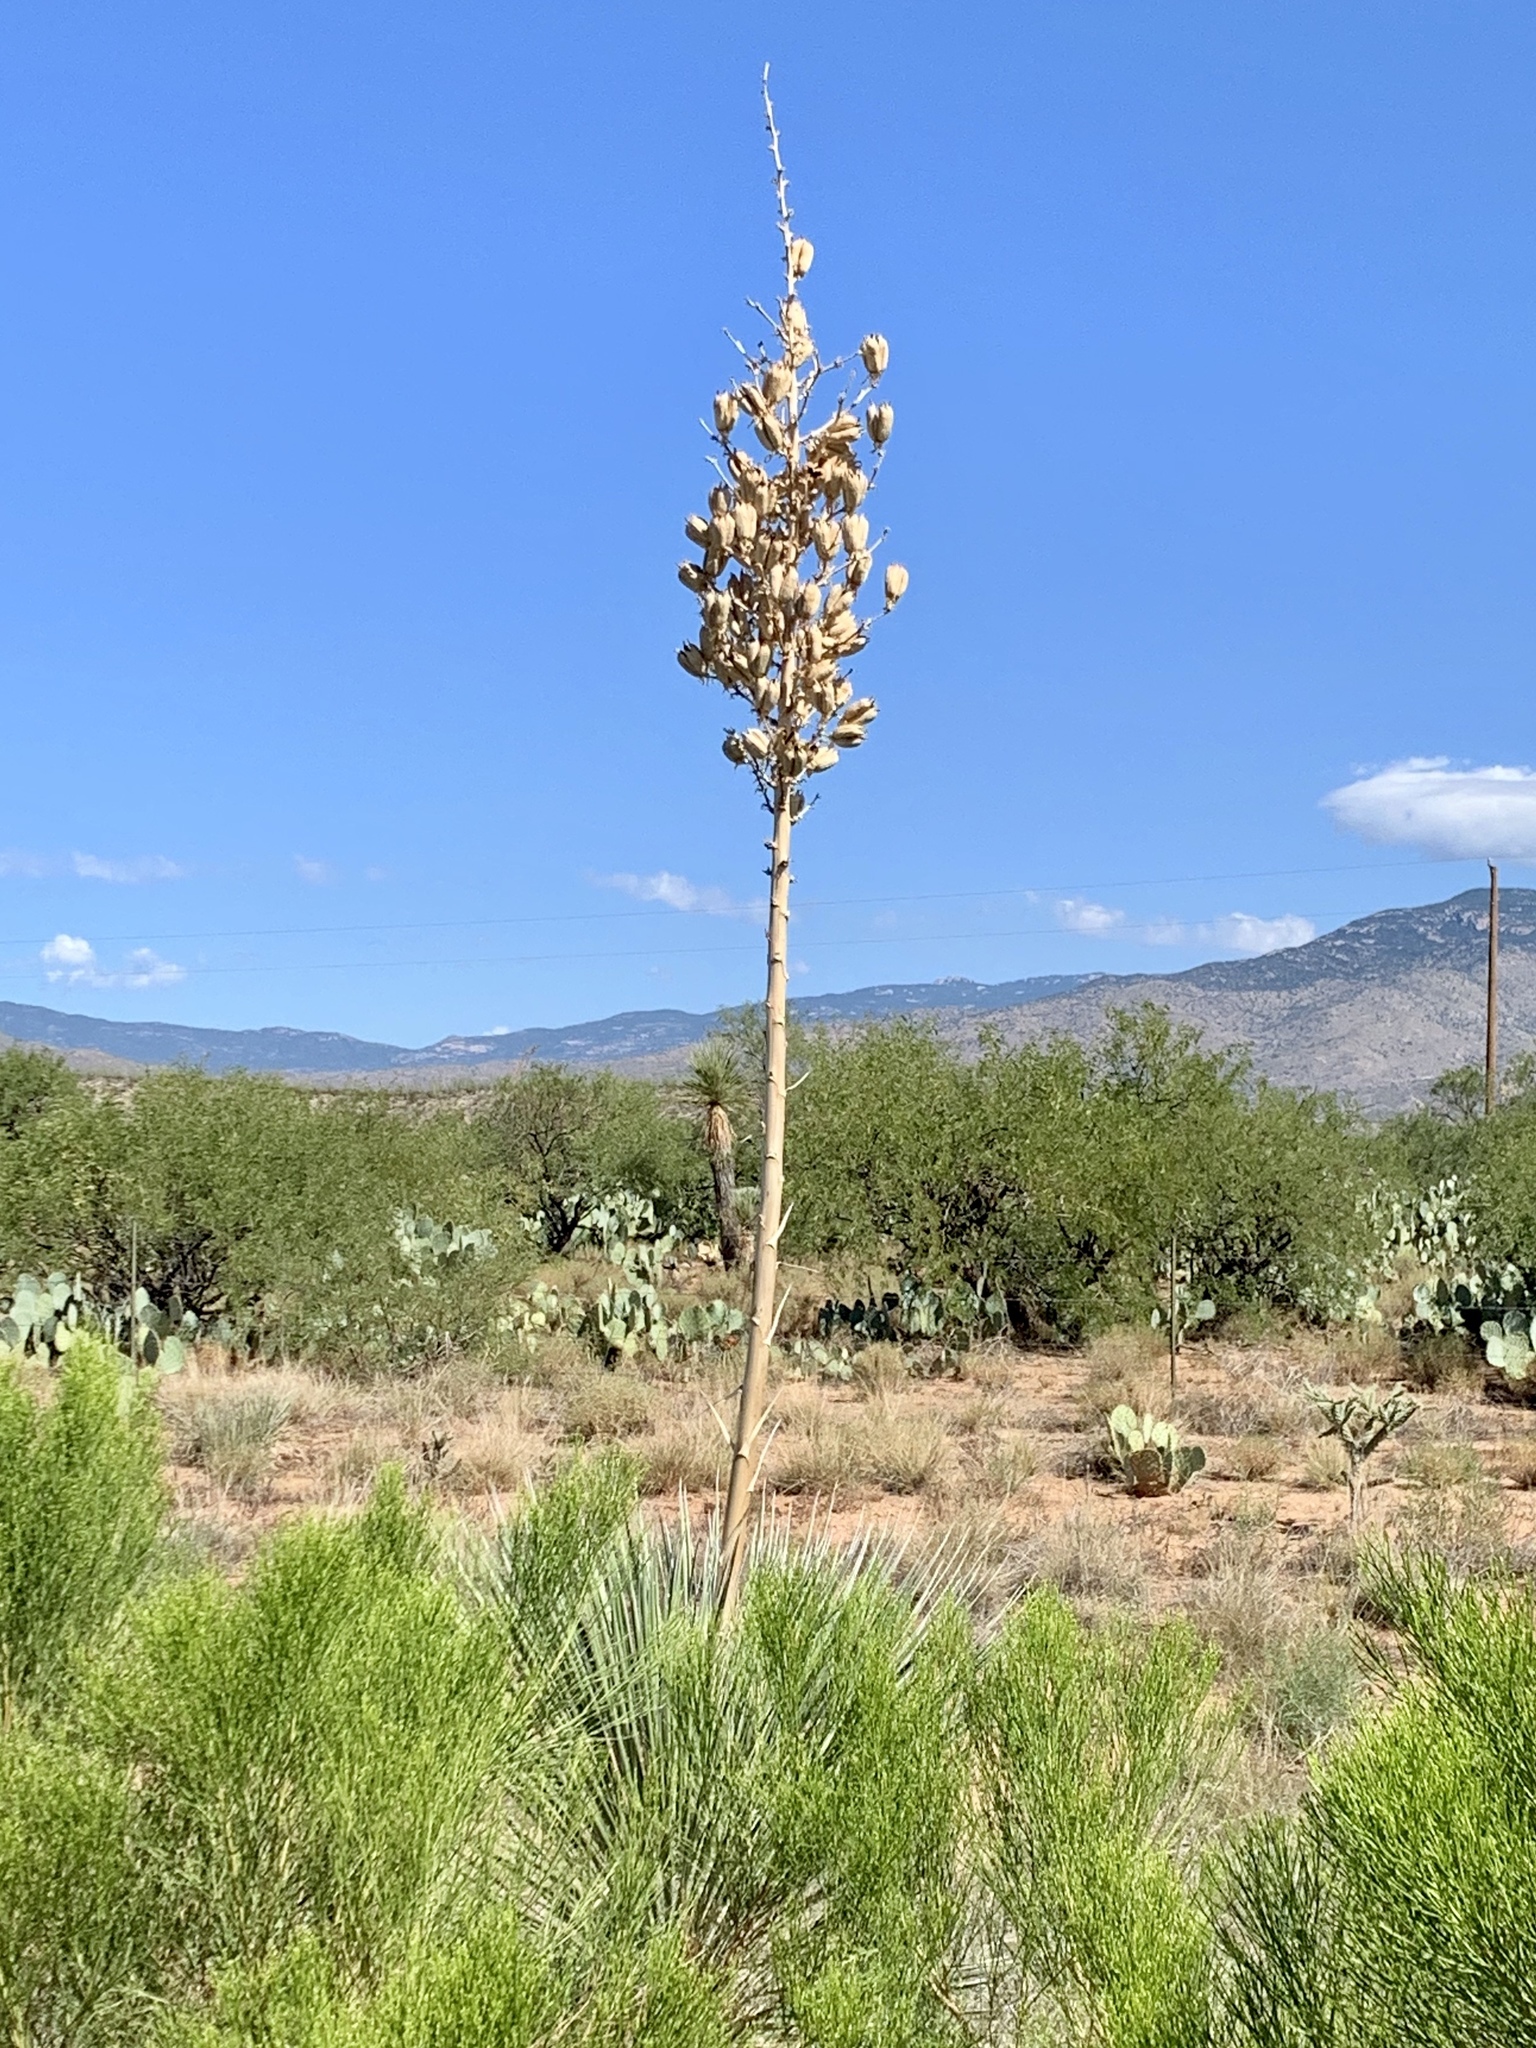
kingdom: Plantae
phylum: Tracheophyta
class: Liliopsida
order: Asparagales
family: Asparagaceae
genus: Yucca
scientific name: Yucca elata
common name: Palmella
